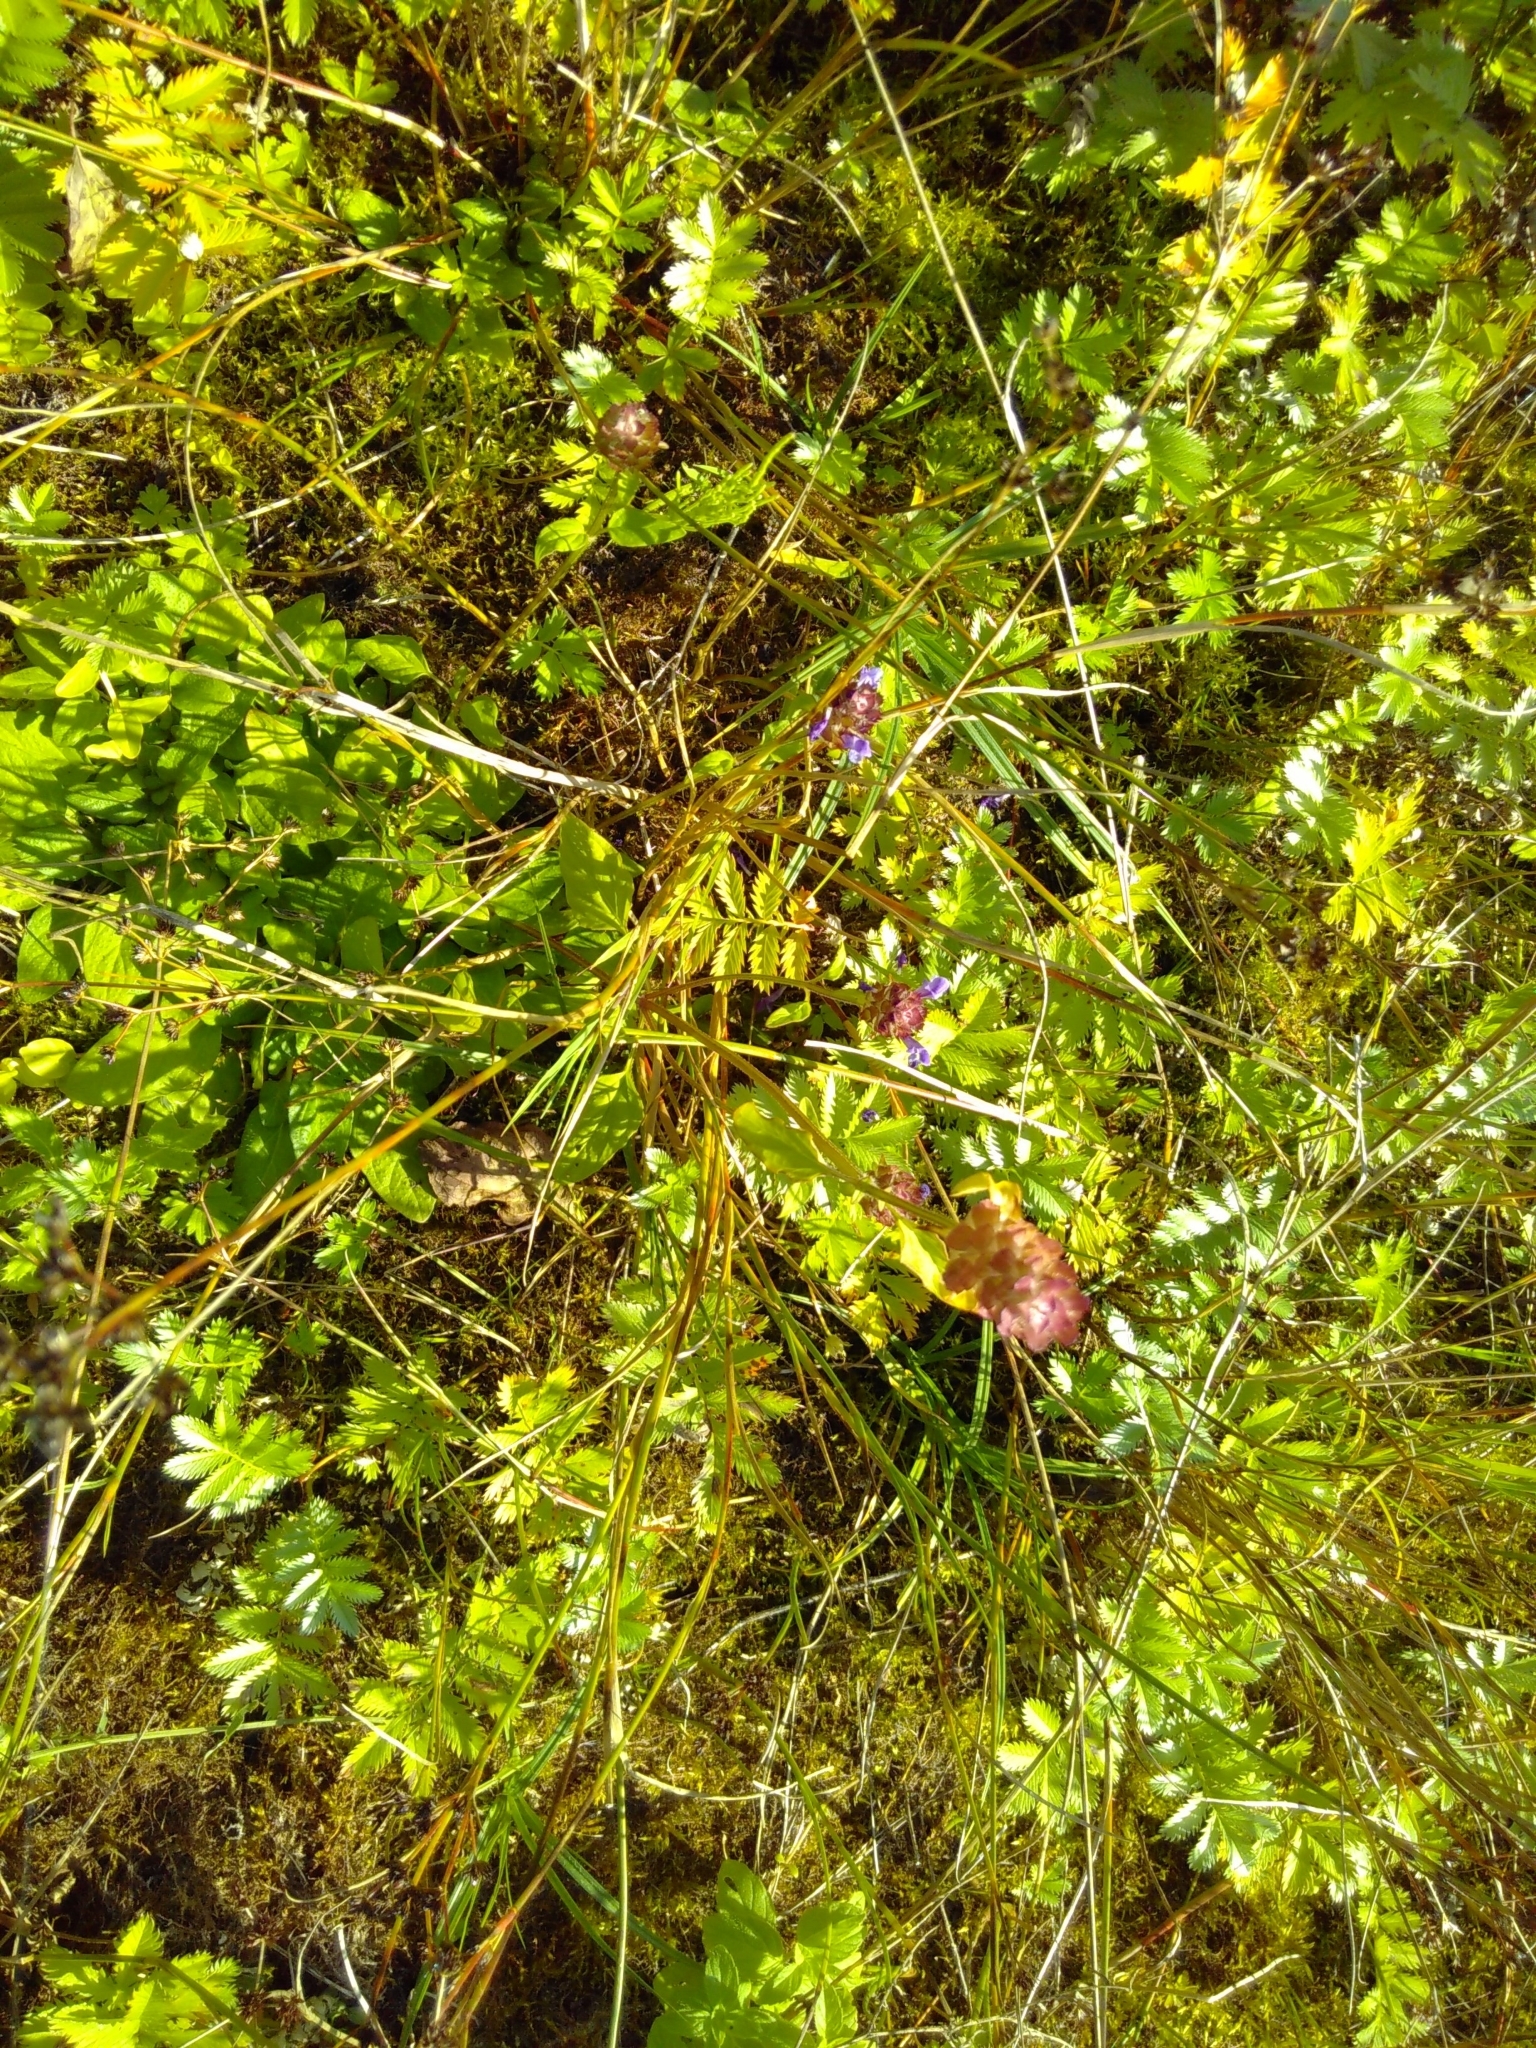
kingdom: Plantae
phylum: Tracheophyta
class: Magnoliopsida
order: Rosales
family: Rosaceae
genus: Argentina
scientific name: Argentina anserina
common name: Common silverweed
